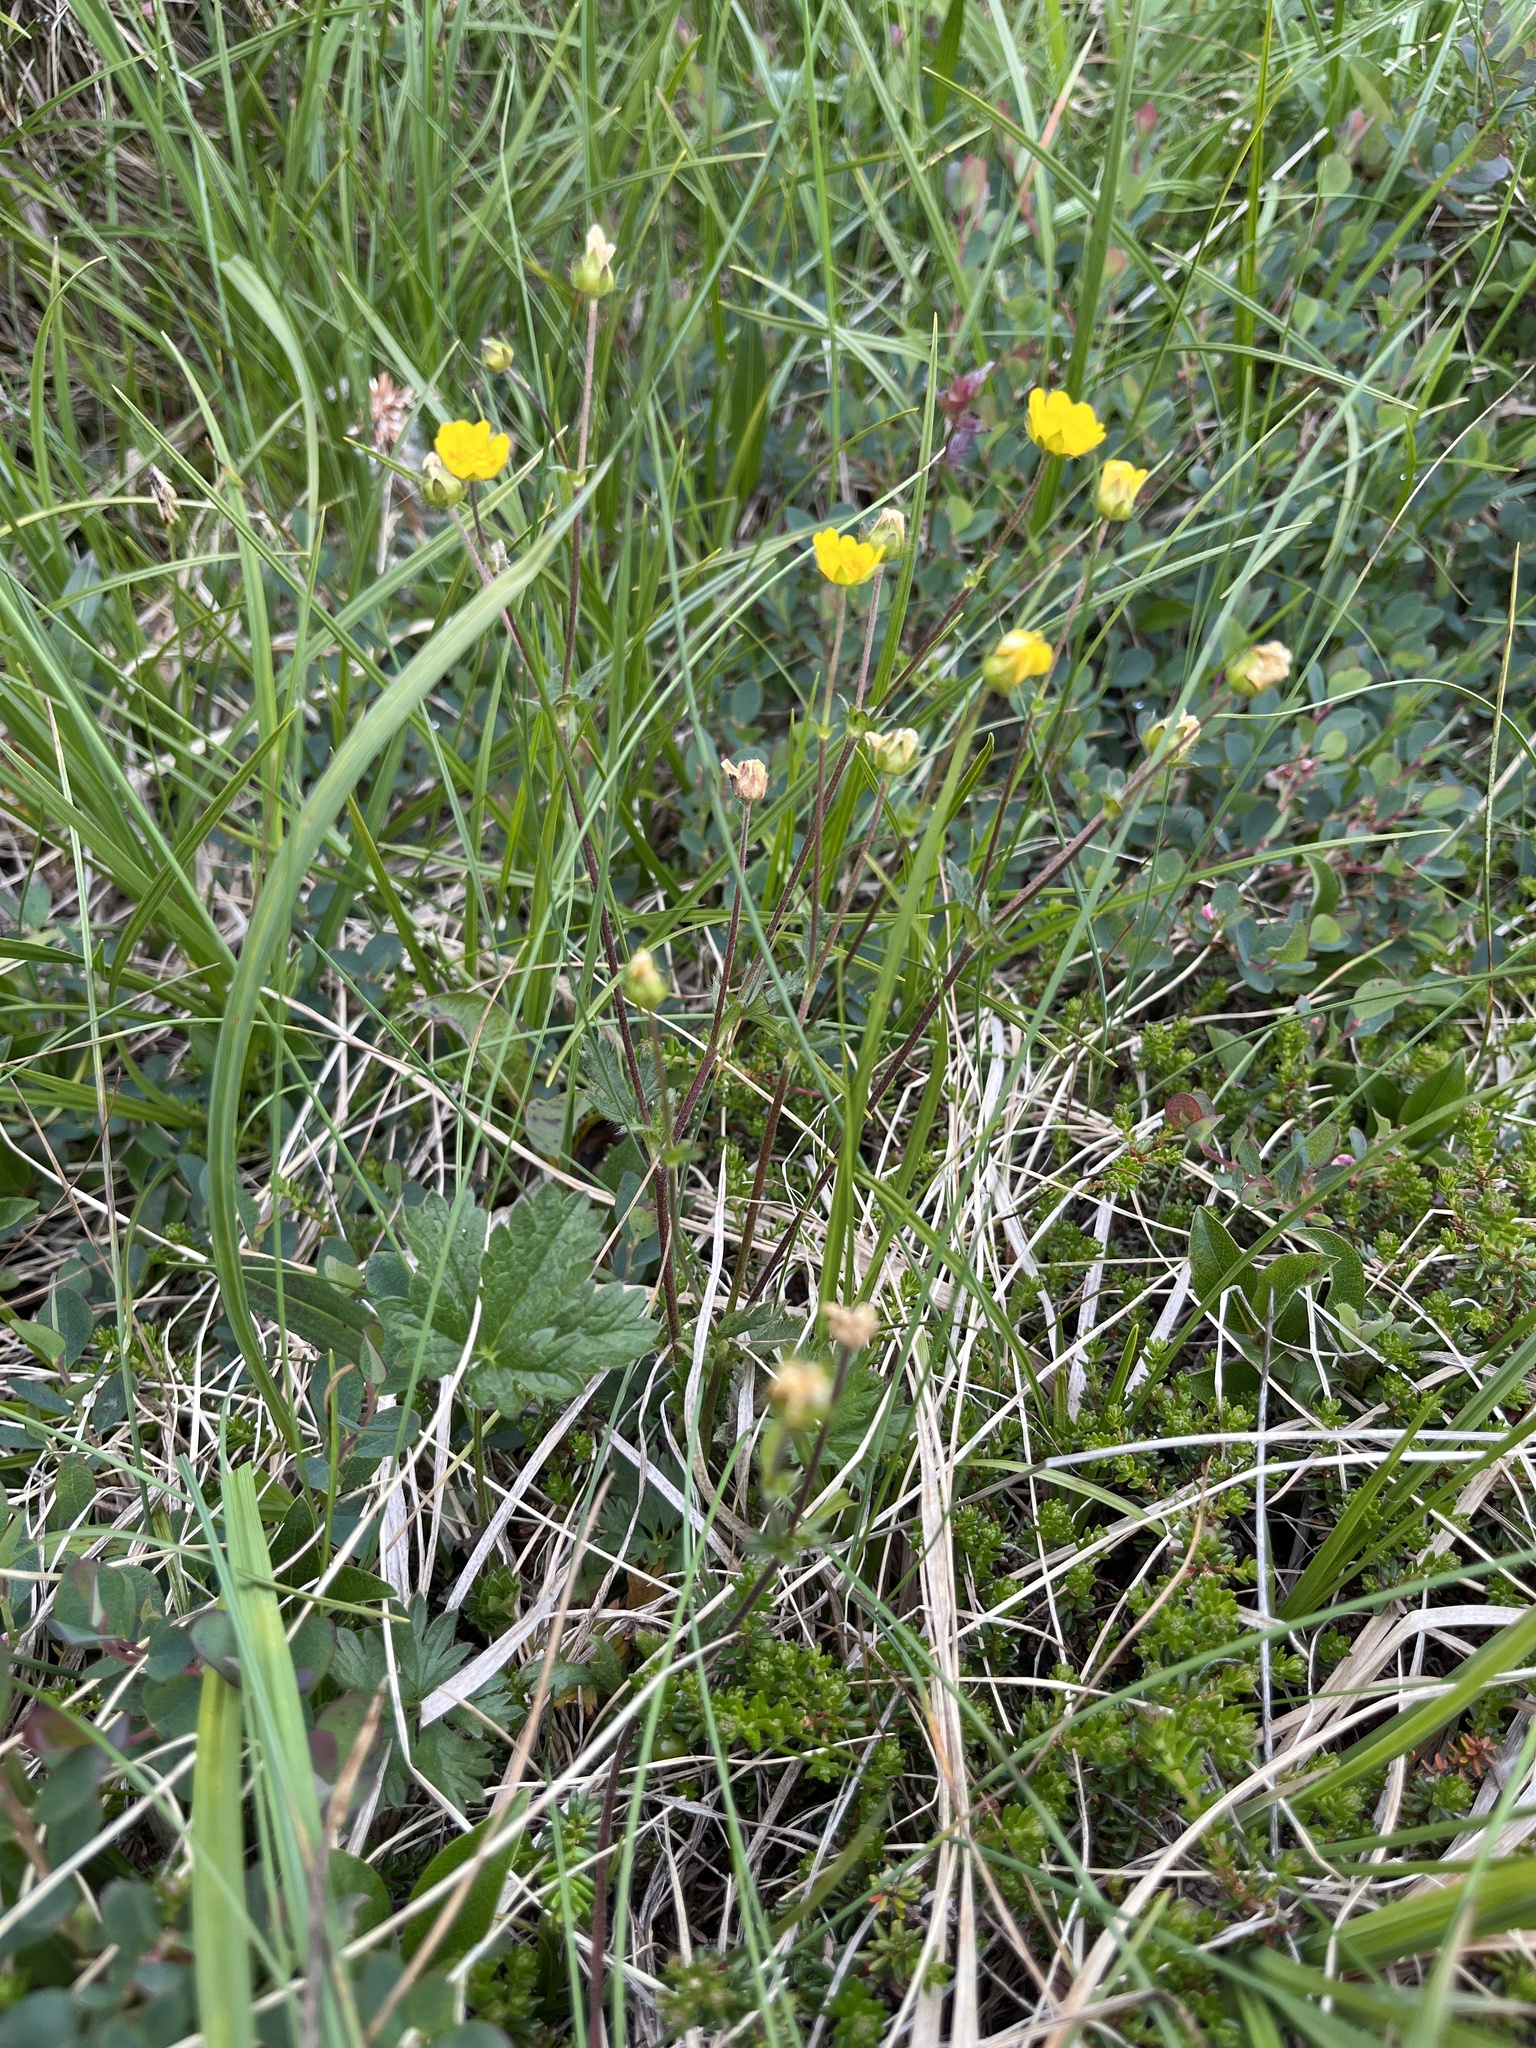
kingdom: Plantae
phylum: Tracheophyta
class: Magnoliopsida
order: Rosales
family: Rosaceae
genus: Potentilla
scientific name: Potentilla crantzii
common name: Alpine cinquefoil
